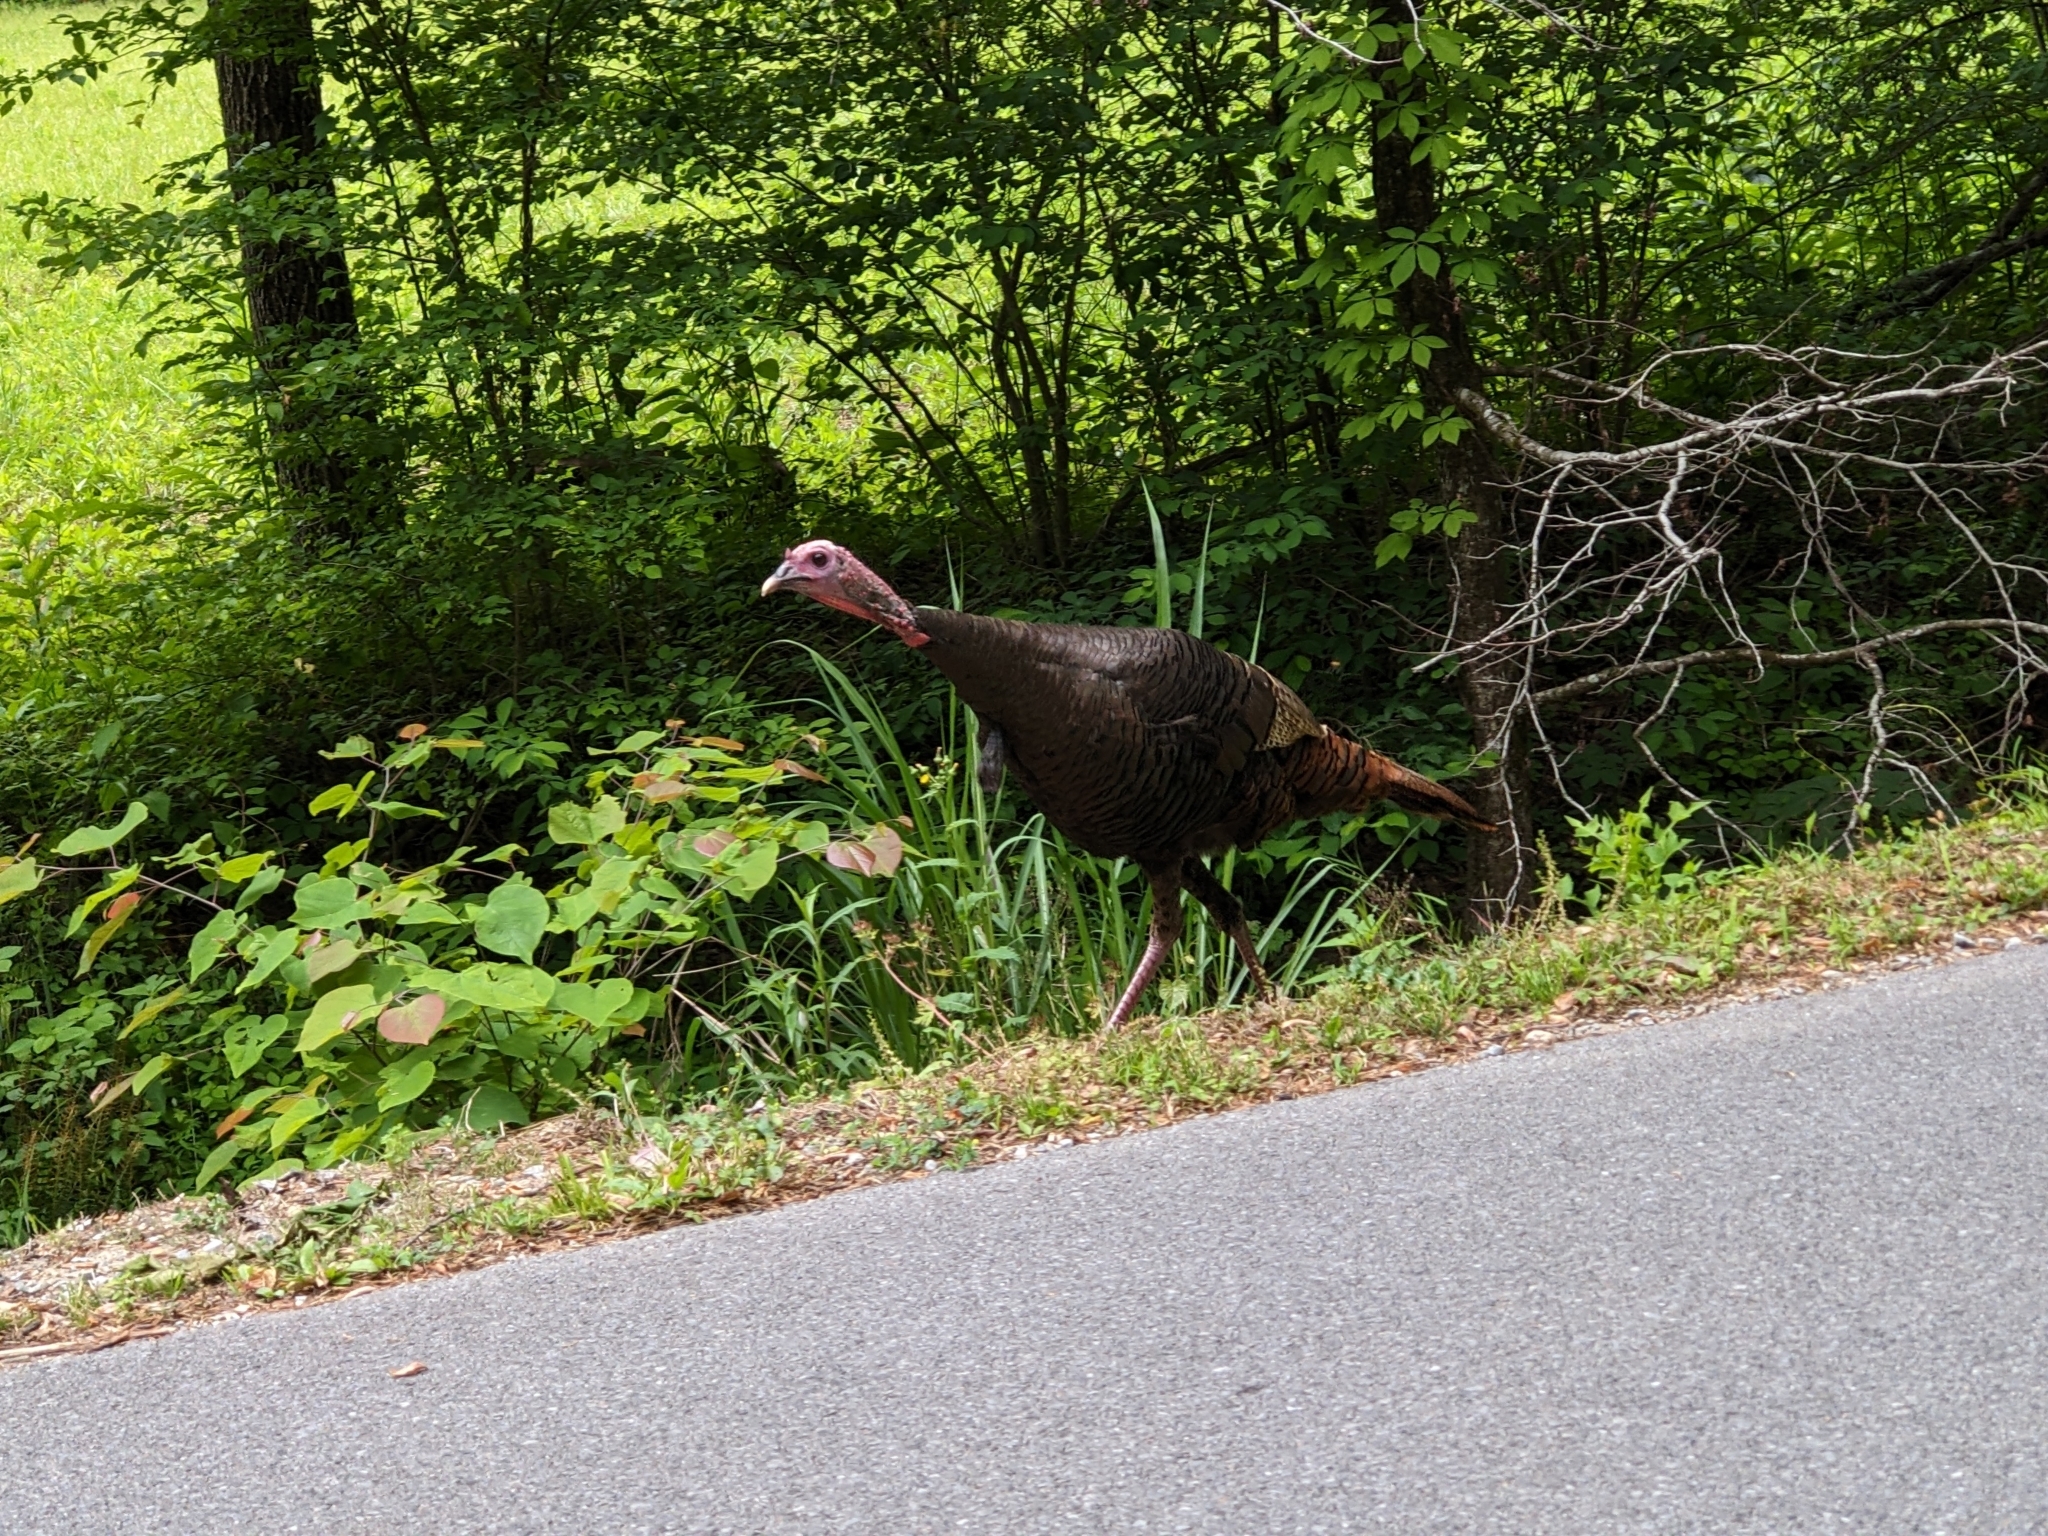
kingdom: Animalia
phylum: Chordata
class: Aves
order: Galliformes
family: Phasianidae
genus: Meleagris
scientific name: Meleagris gallopavo
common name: Wild turkey
